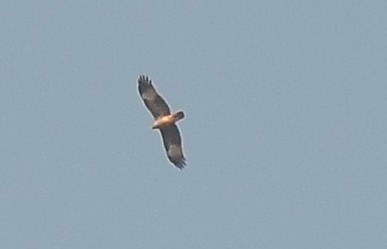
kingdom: Animalia
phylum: Chordata
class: Aves
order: Accipitriformes
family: Accipitridae
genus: Haliastur
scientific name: Haliastur indus
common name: Brahminy kite
